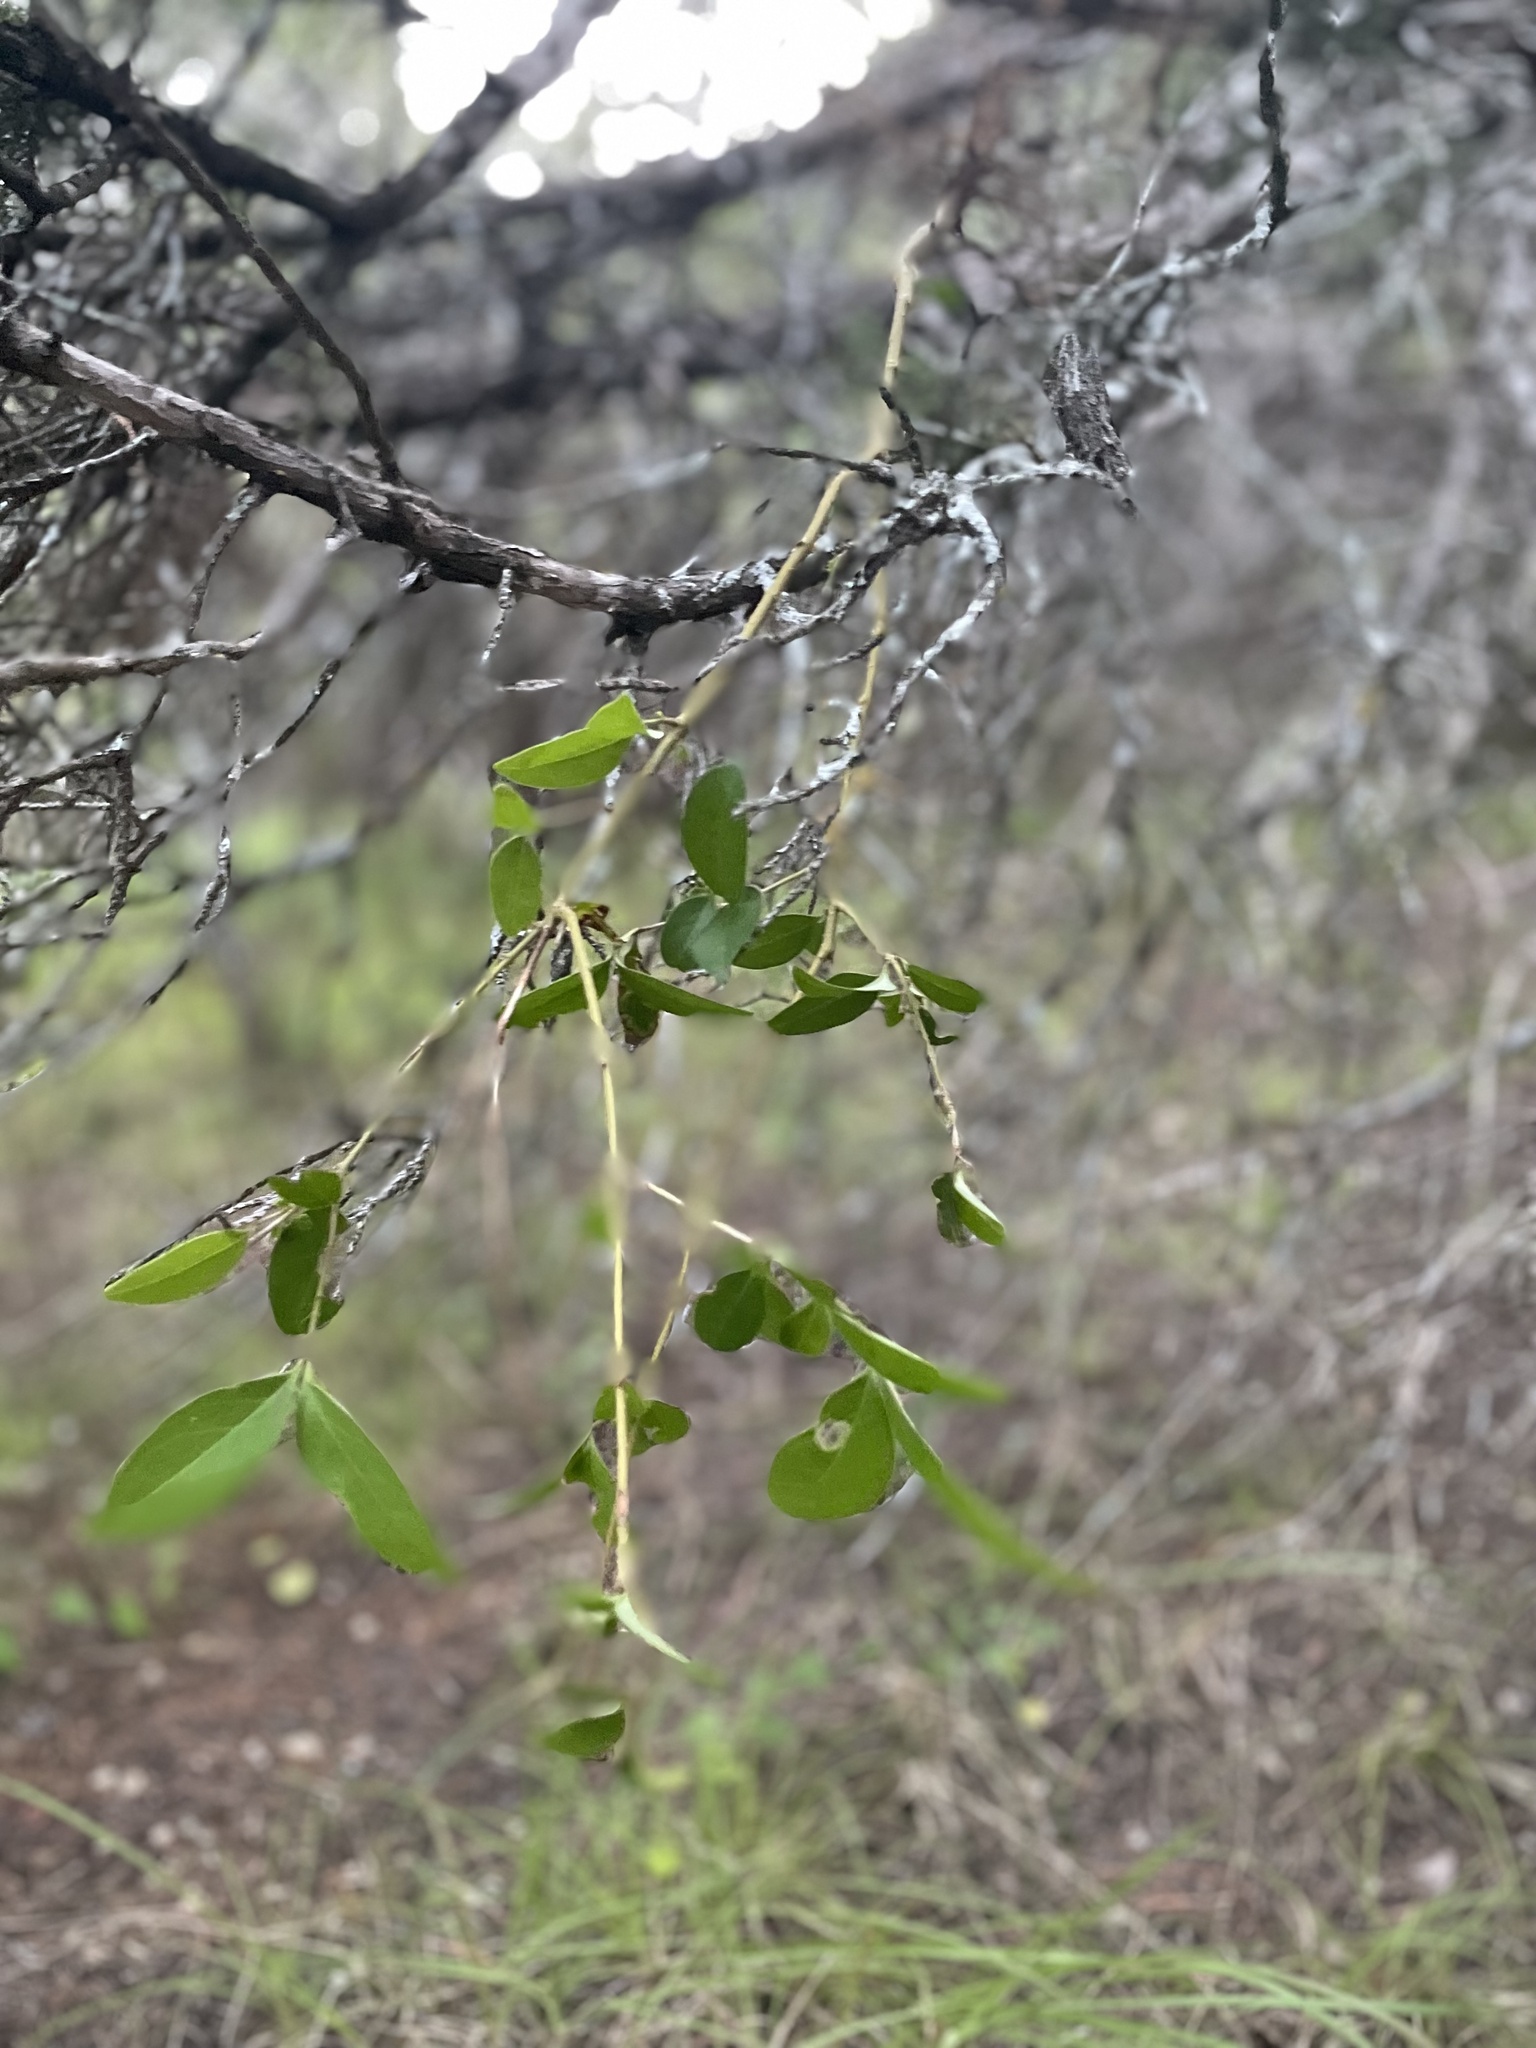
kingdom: Plantae
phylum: Tracheophyta
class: Magnoliopsida
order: Lamiales
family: Oleaceae
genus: Ligustrum
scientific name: Ligustrum lucidum
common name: Glossy privet
